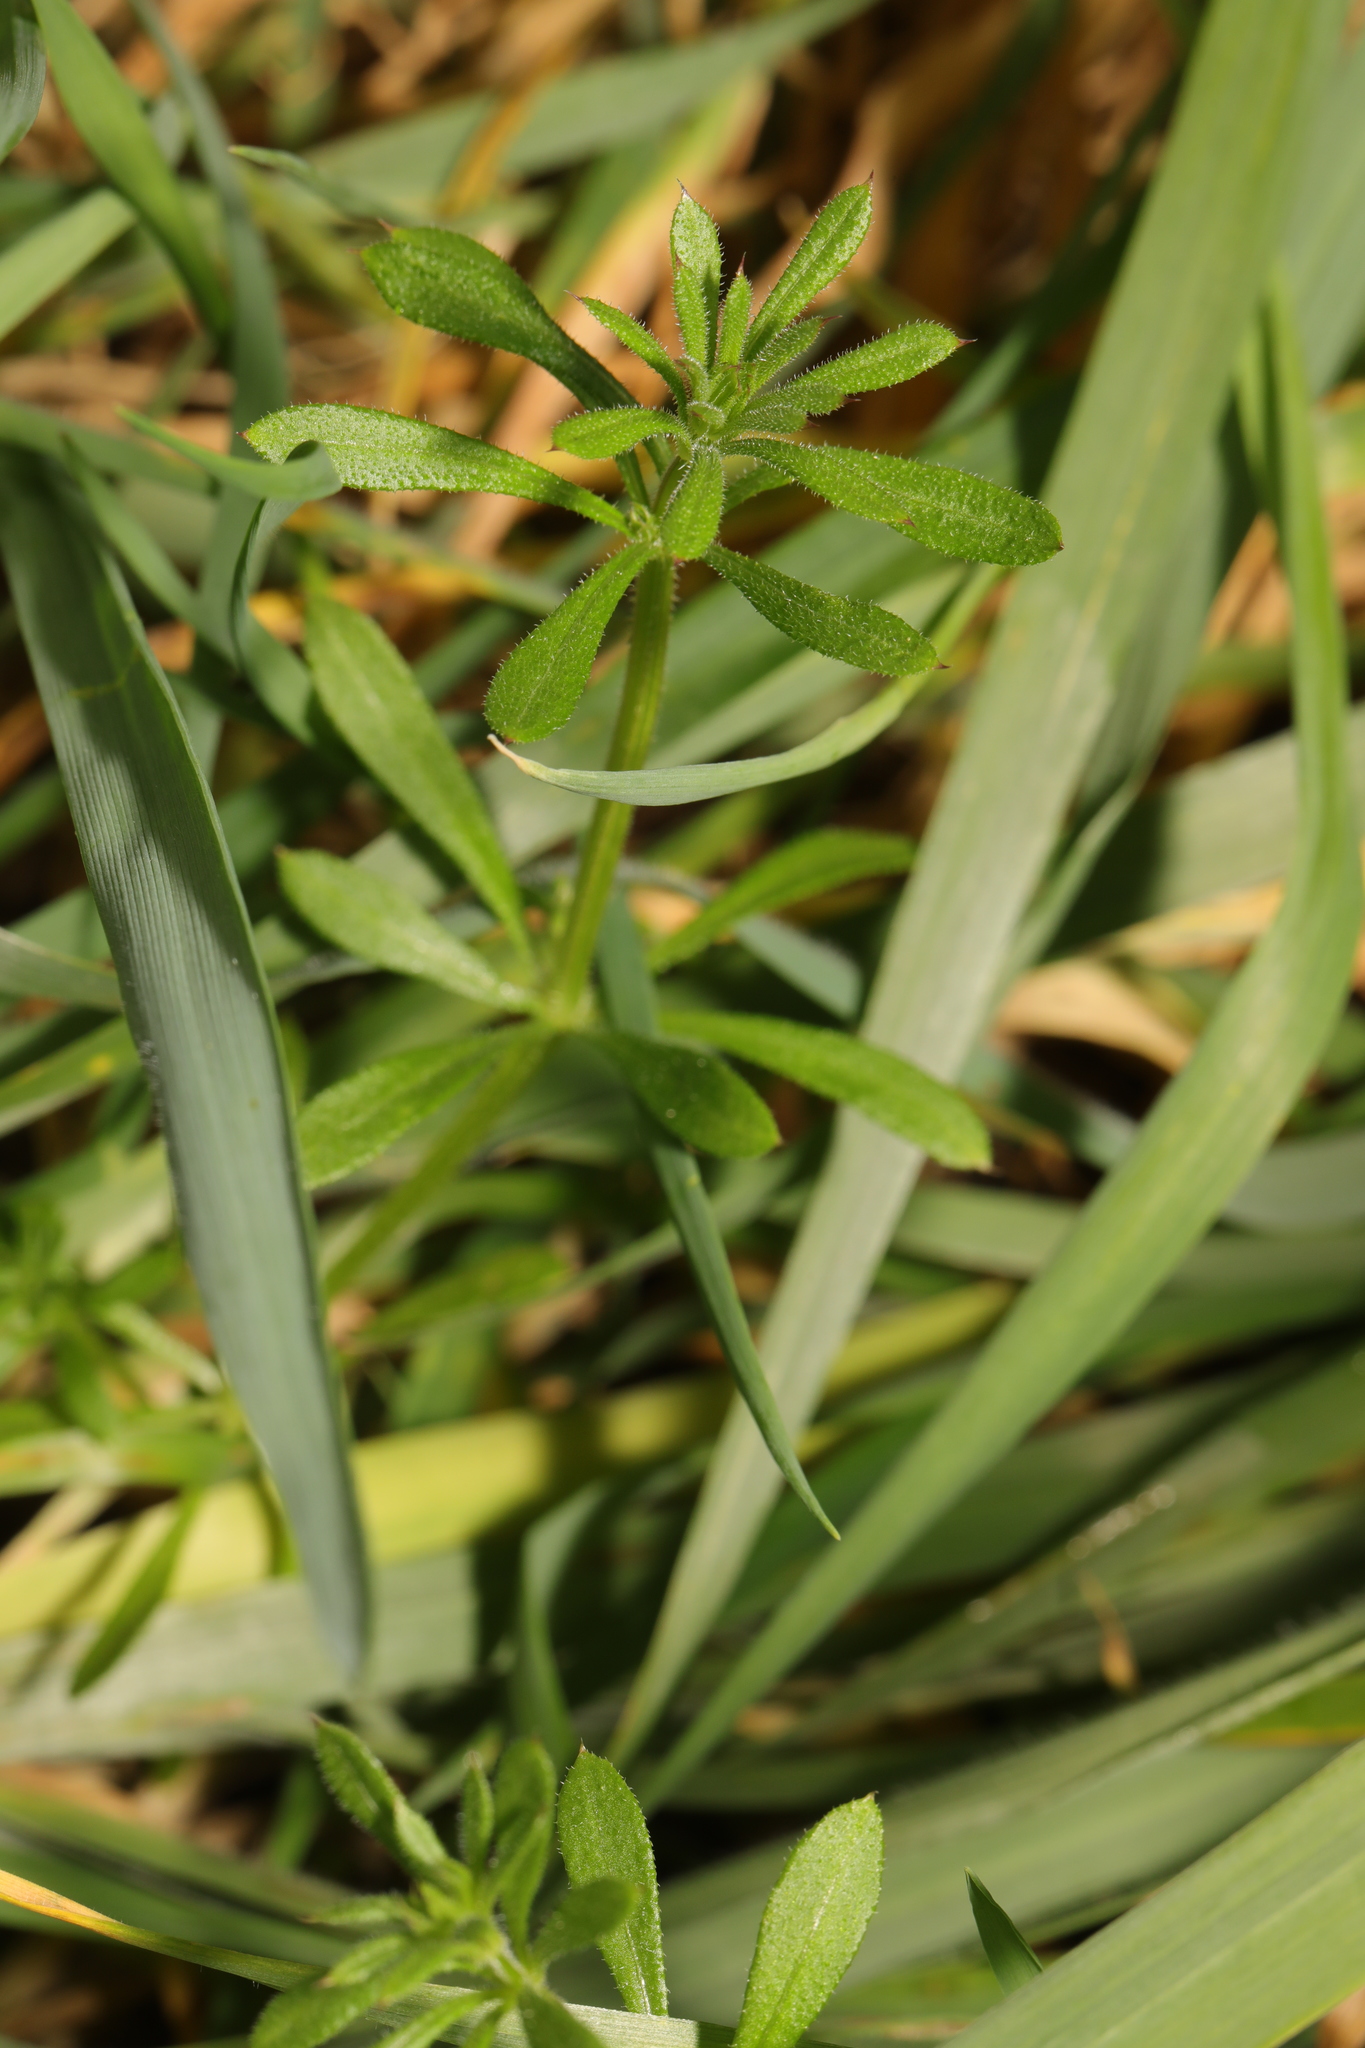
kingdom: Plantae
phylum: Tracheophyta
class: Magnoliopsida
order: Gentianales
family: Rubiaceae
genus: Galium
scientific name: Galium aparine
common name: Cleavers
